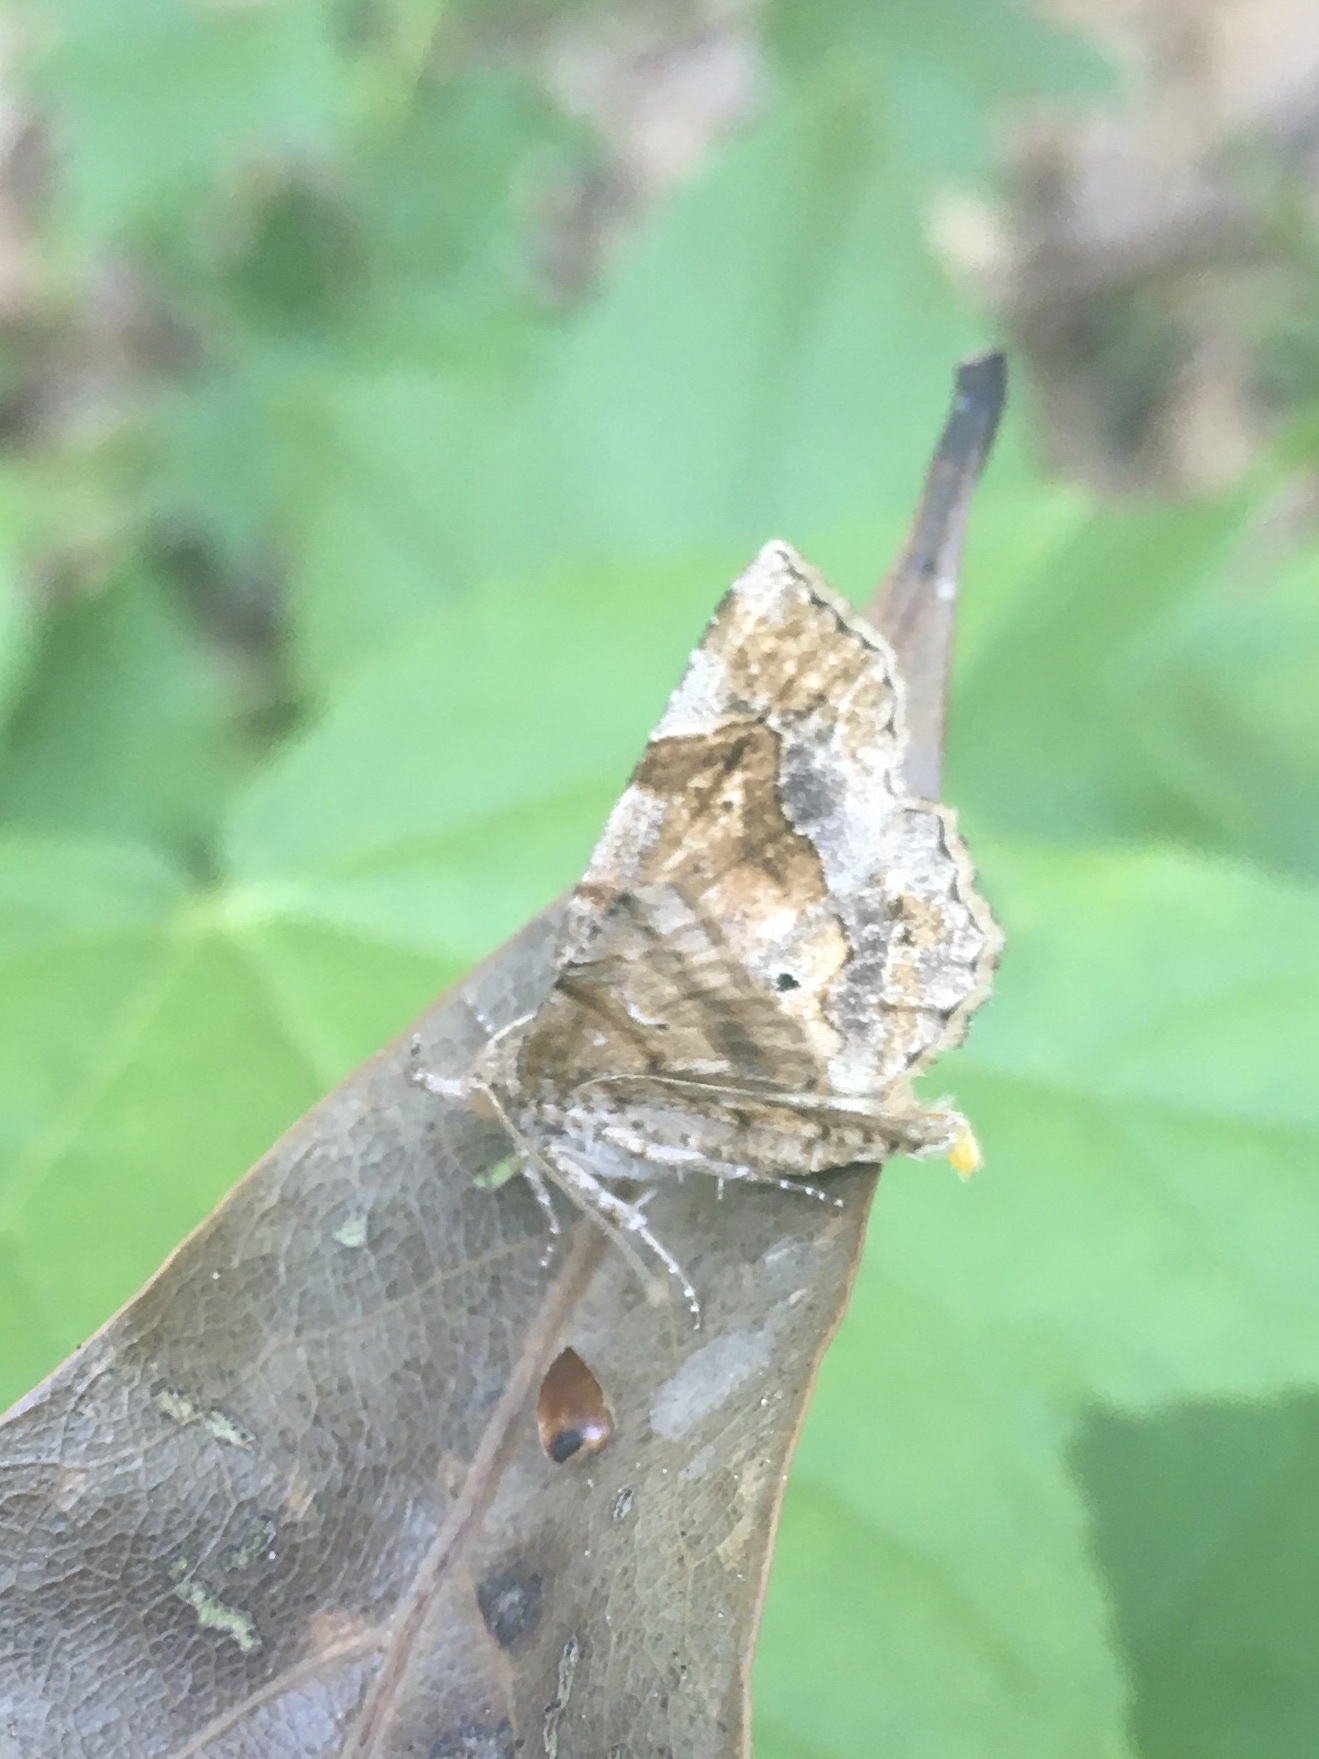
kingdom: Animalia
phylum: Arthropoda
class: Insecta
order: Lepidoptera
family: Erebidae
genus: Pangrapta
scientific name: Pangrapta decoralis
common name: Decorated owlet
